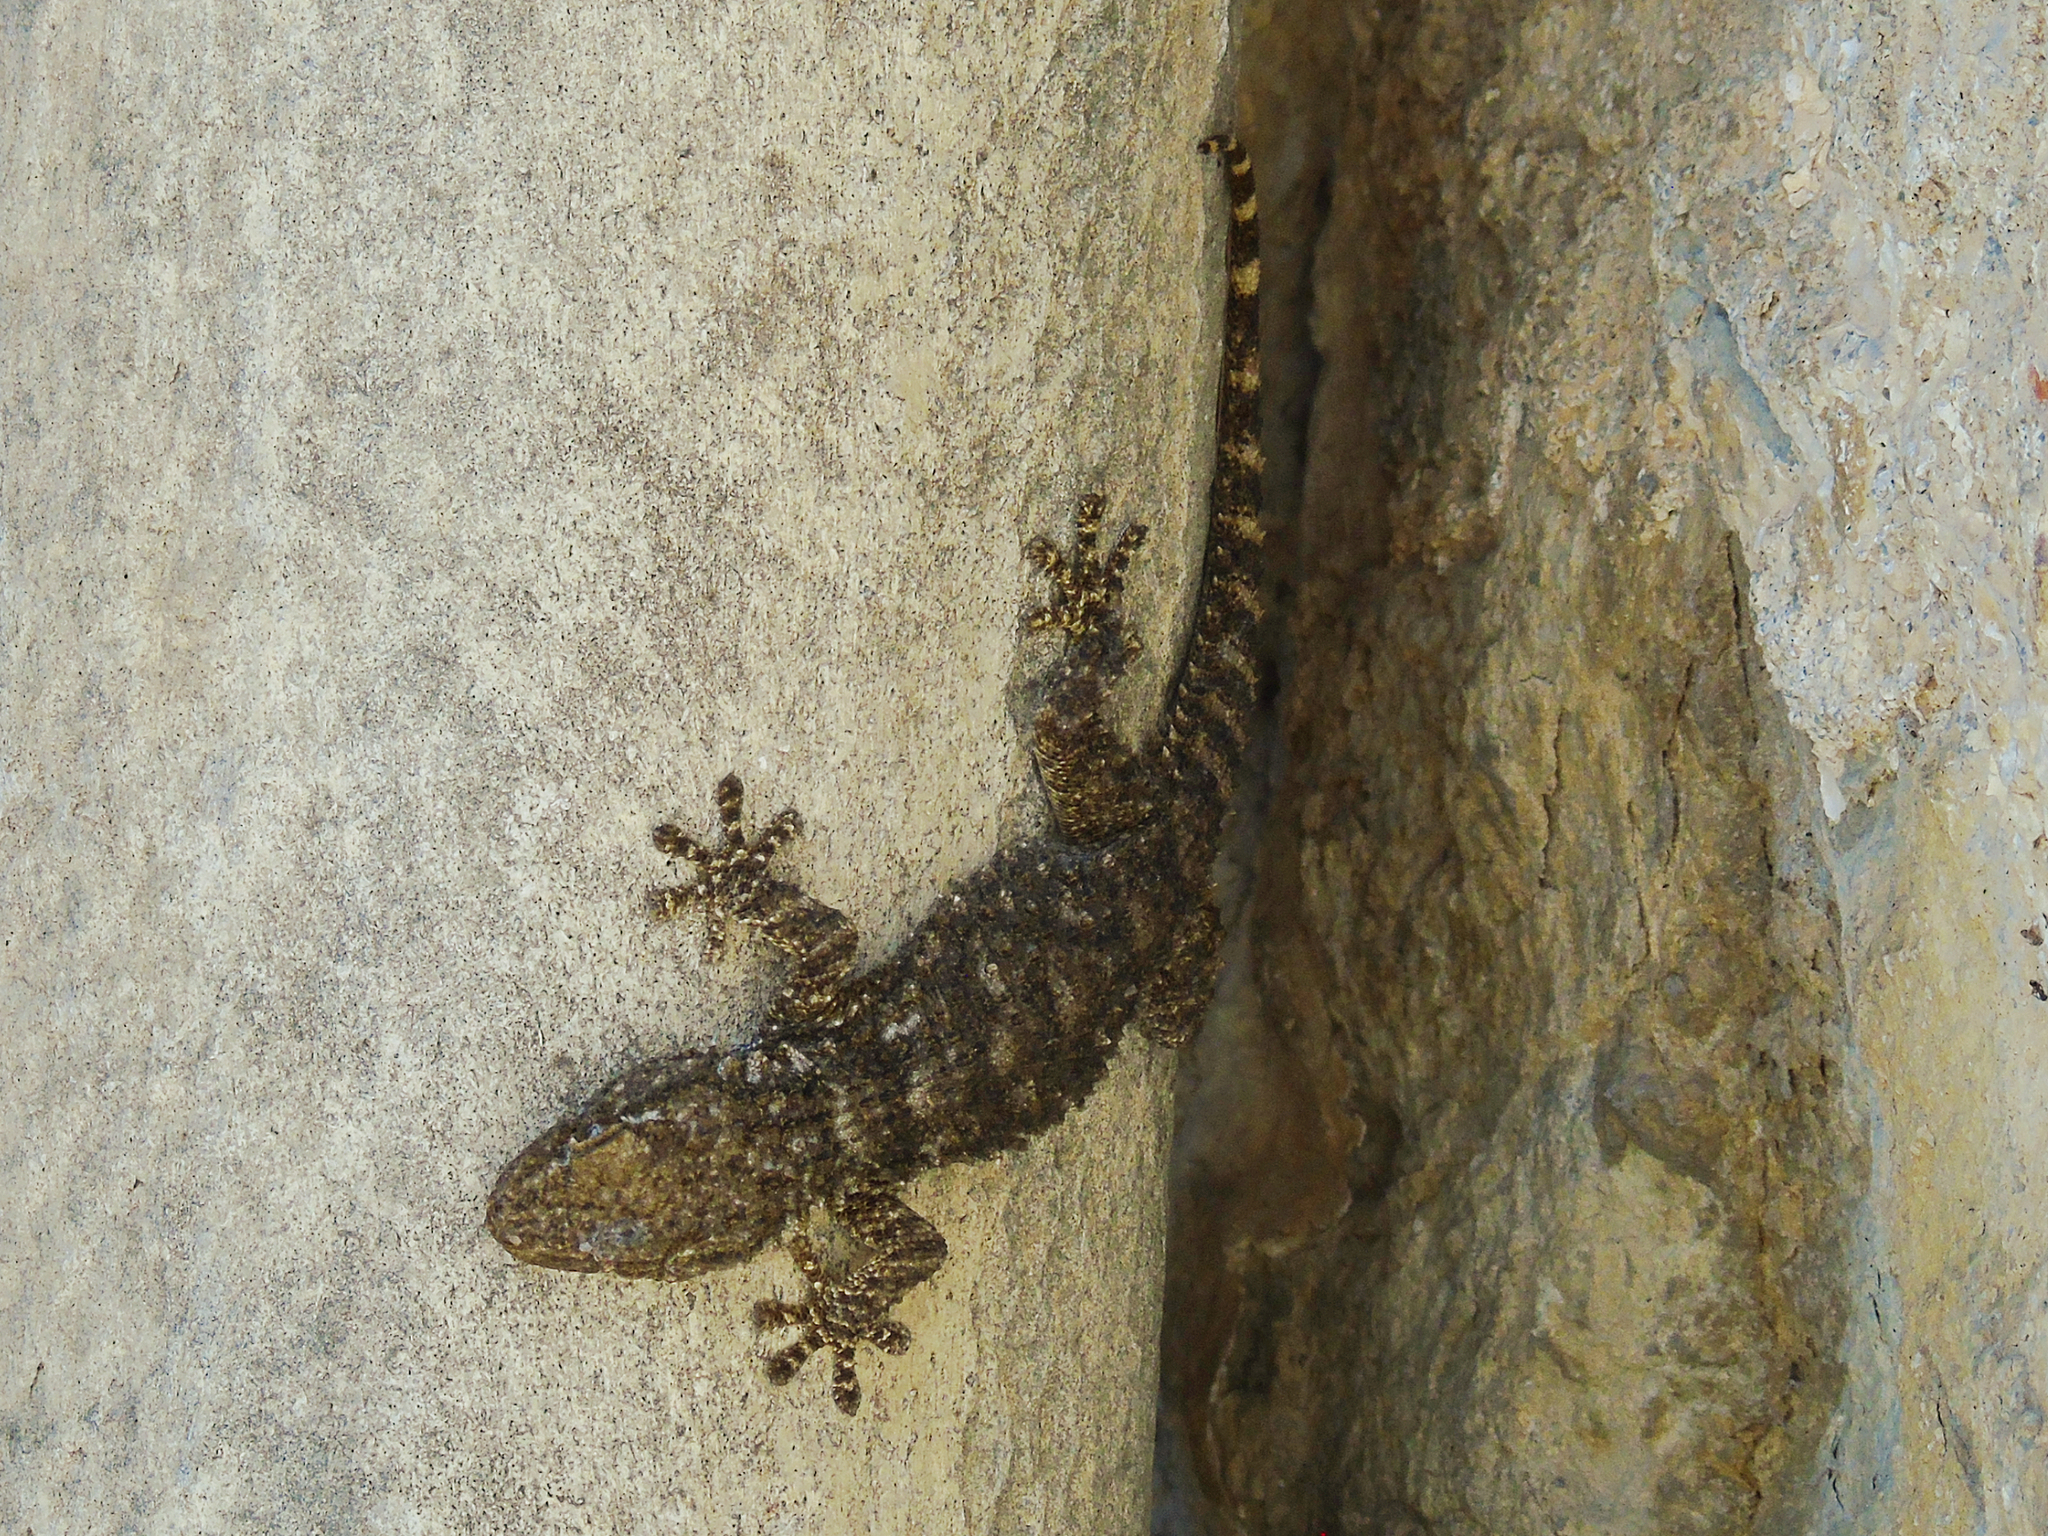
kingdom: Animalia
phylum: Chordata
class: Squamata
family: Phyllodactylidae
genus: Tarentola
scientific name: Tarentola mauritanica
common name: Moorish gecko
